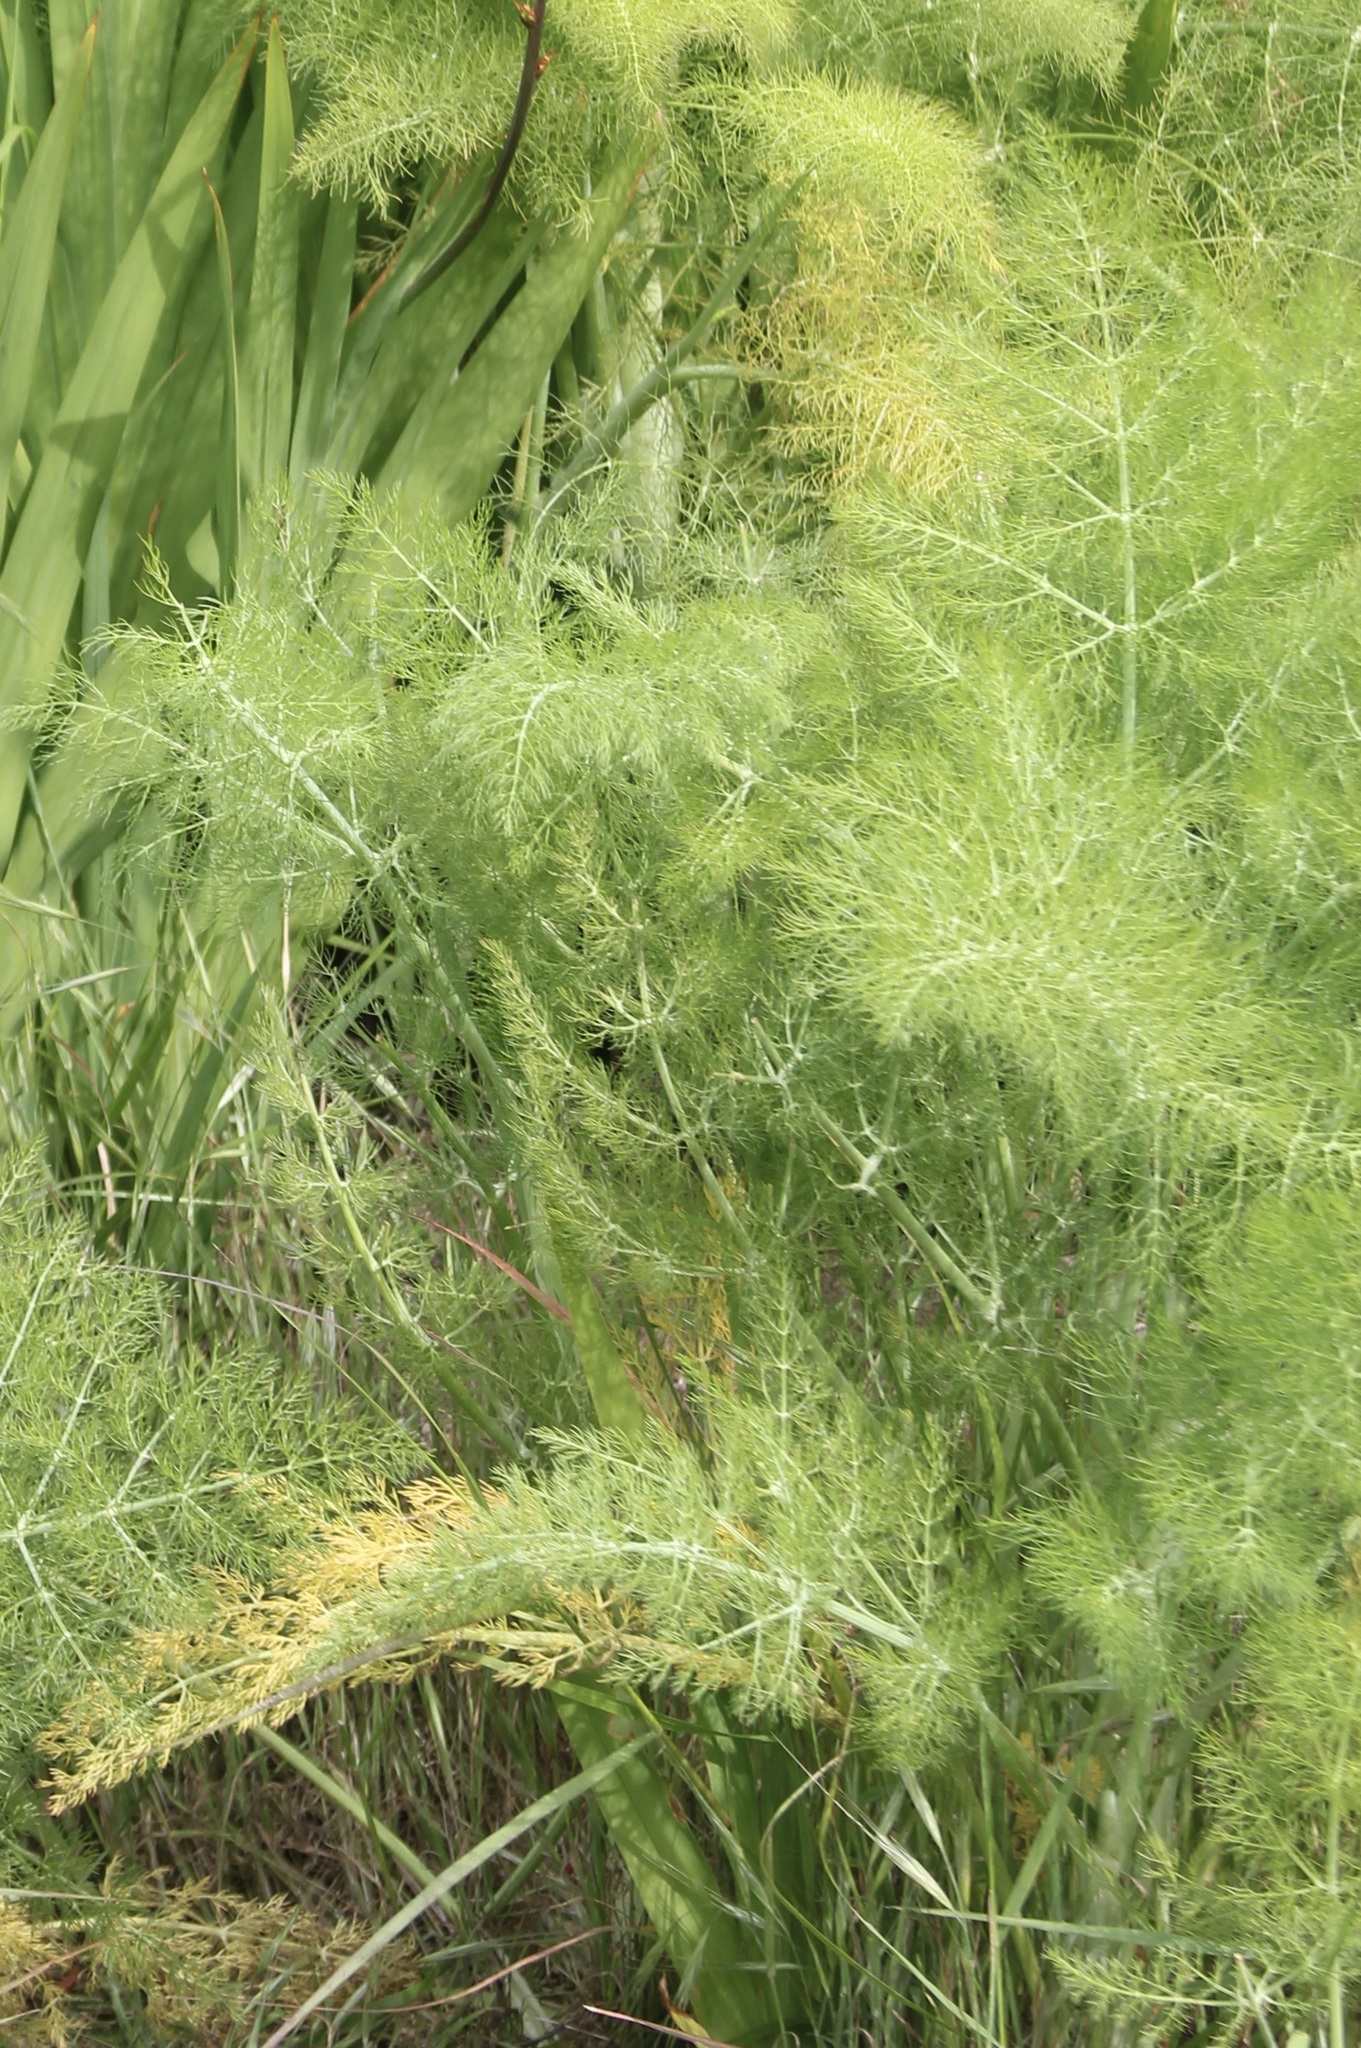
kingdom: Plantae
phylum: Tracheophyta
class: Magnoliopsida
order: Apiales
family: Apiaceae
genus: Foeniculum
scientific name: Foeniculum vulgare
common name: Fennel
